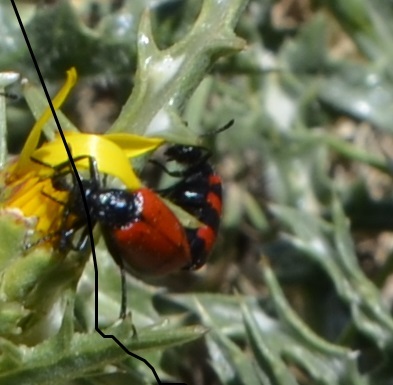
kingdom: Animalia
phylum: Arthropoda
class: Insecta
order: Coleoptera
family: Meloidae
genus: Mylabris
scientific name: Mylabris guerini
